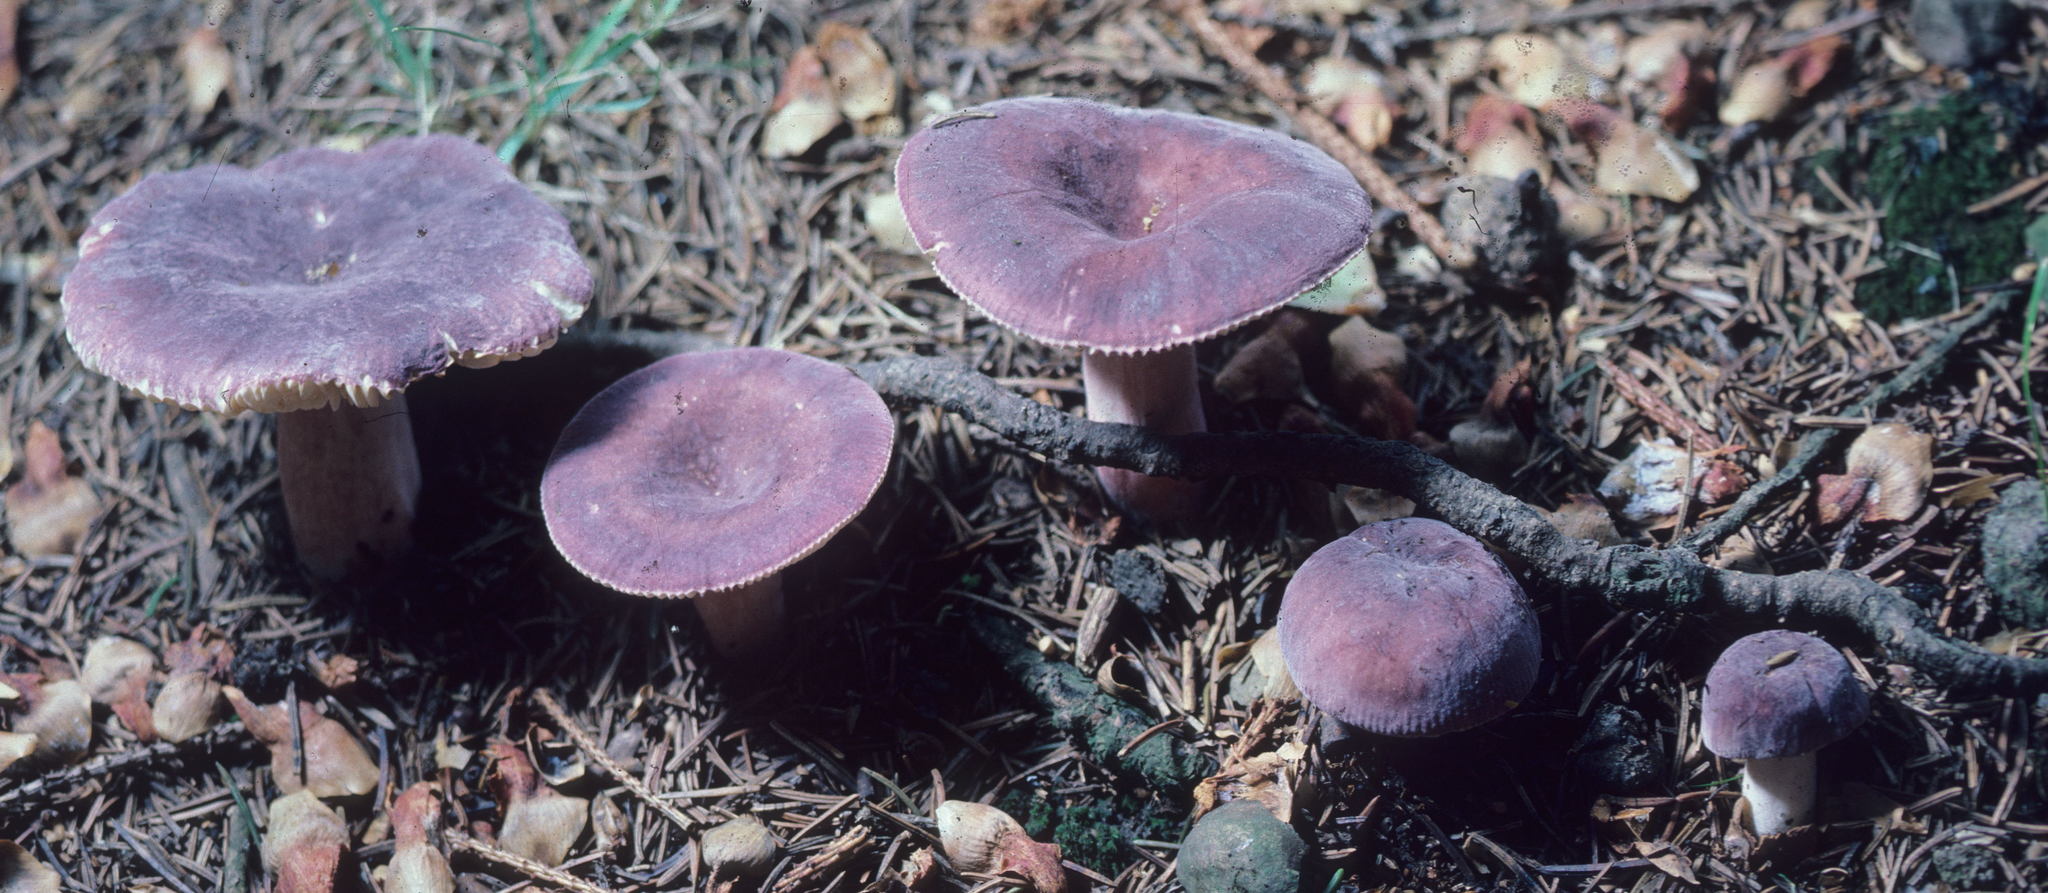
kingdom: Fungi
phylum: Basidiomycota
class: Agaricomycetes
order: Russulales
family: Russulaceae
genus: Russula
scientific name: Russula mariae
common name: Purple-bloom russula
